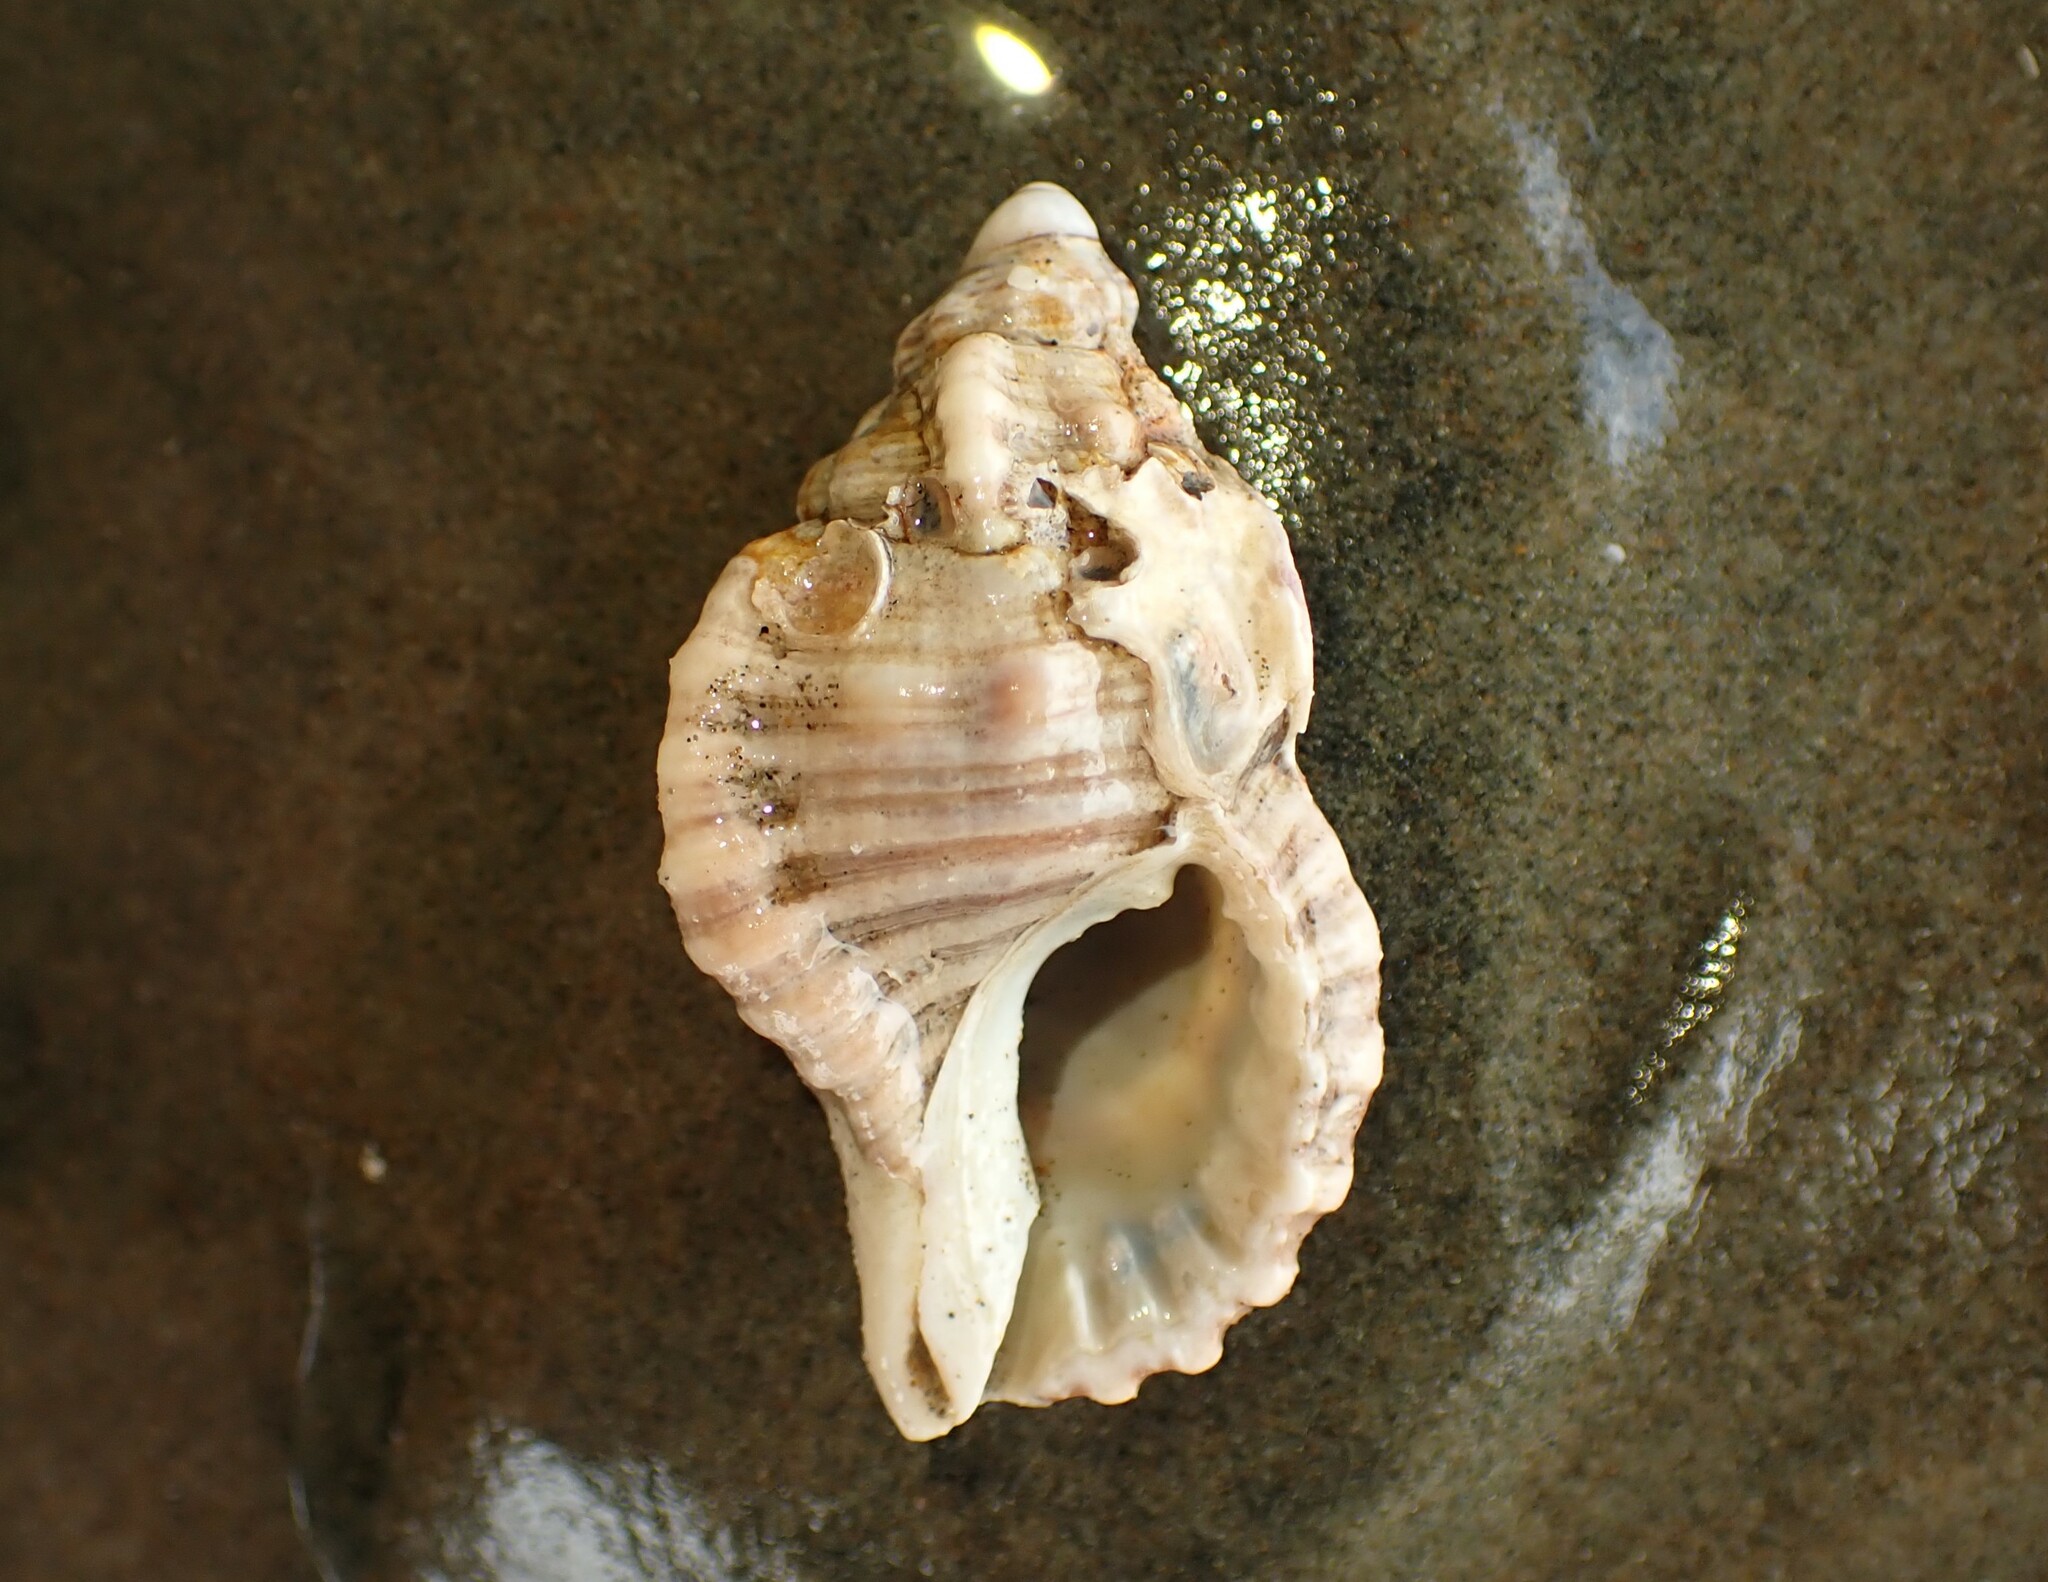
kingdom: Animalia
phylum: Mollusca
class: Gastropoda
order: Littorinimorpha
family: Cymatiidae
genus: Cabestana
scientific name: Cabestana spengleri
